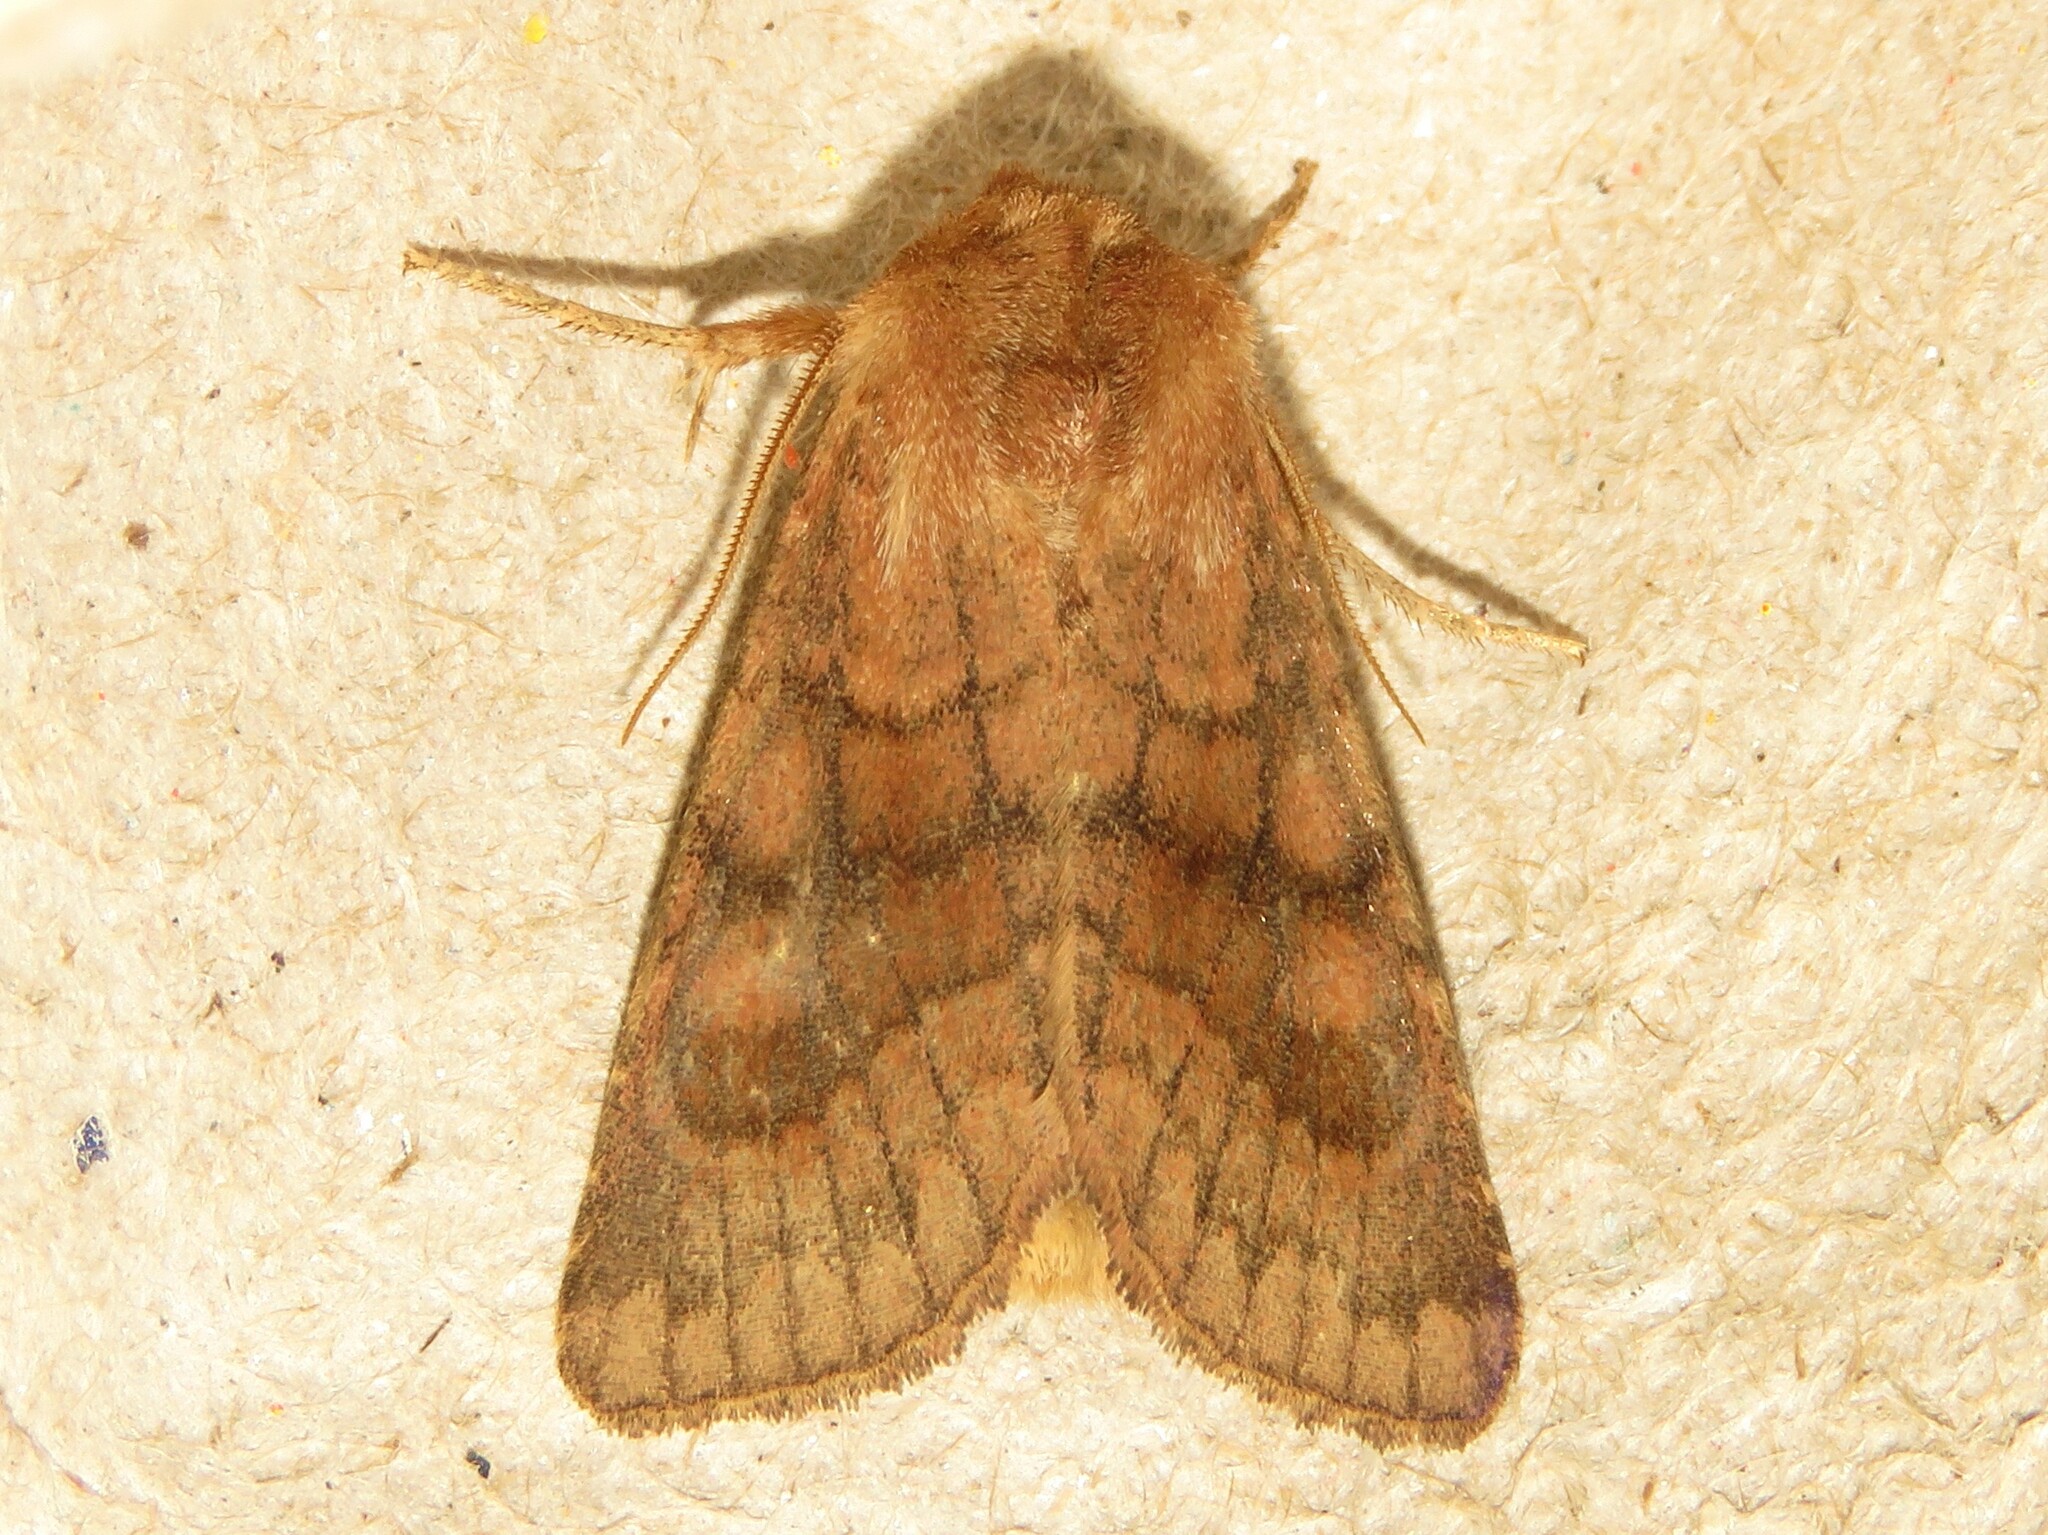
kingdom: Animalia
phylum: Arthropoda
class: Insecta
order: Lepidoptera
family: Noctuidae
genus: Nephelodes
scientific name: Nephelodes minians
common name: Bronzed cutworm
